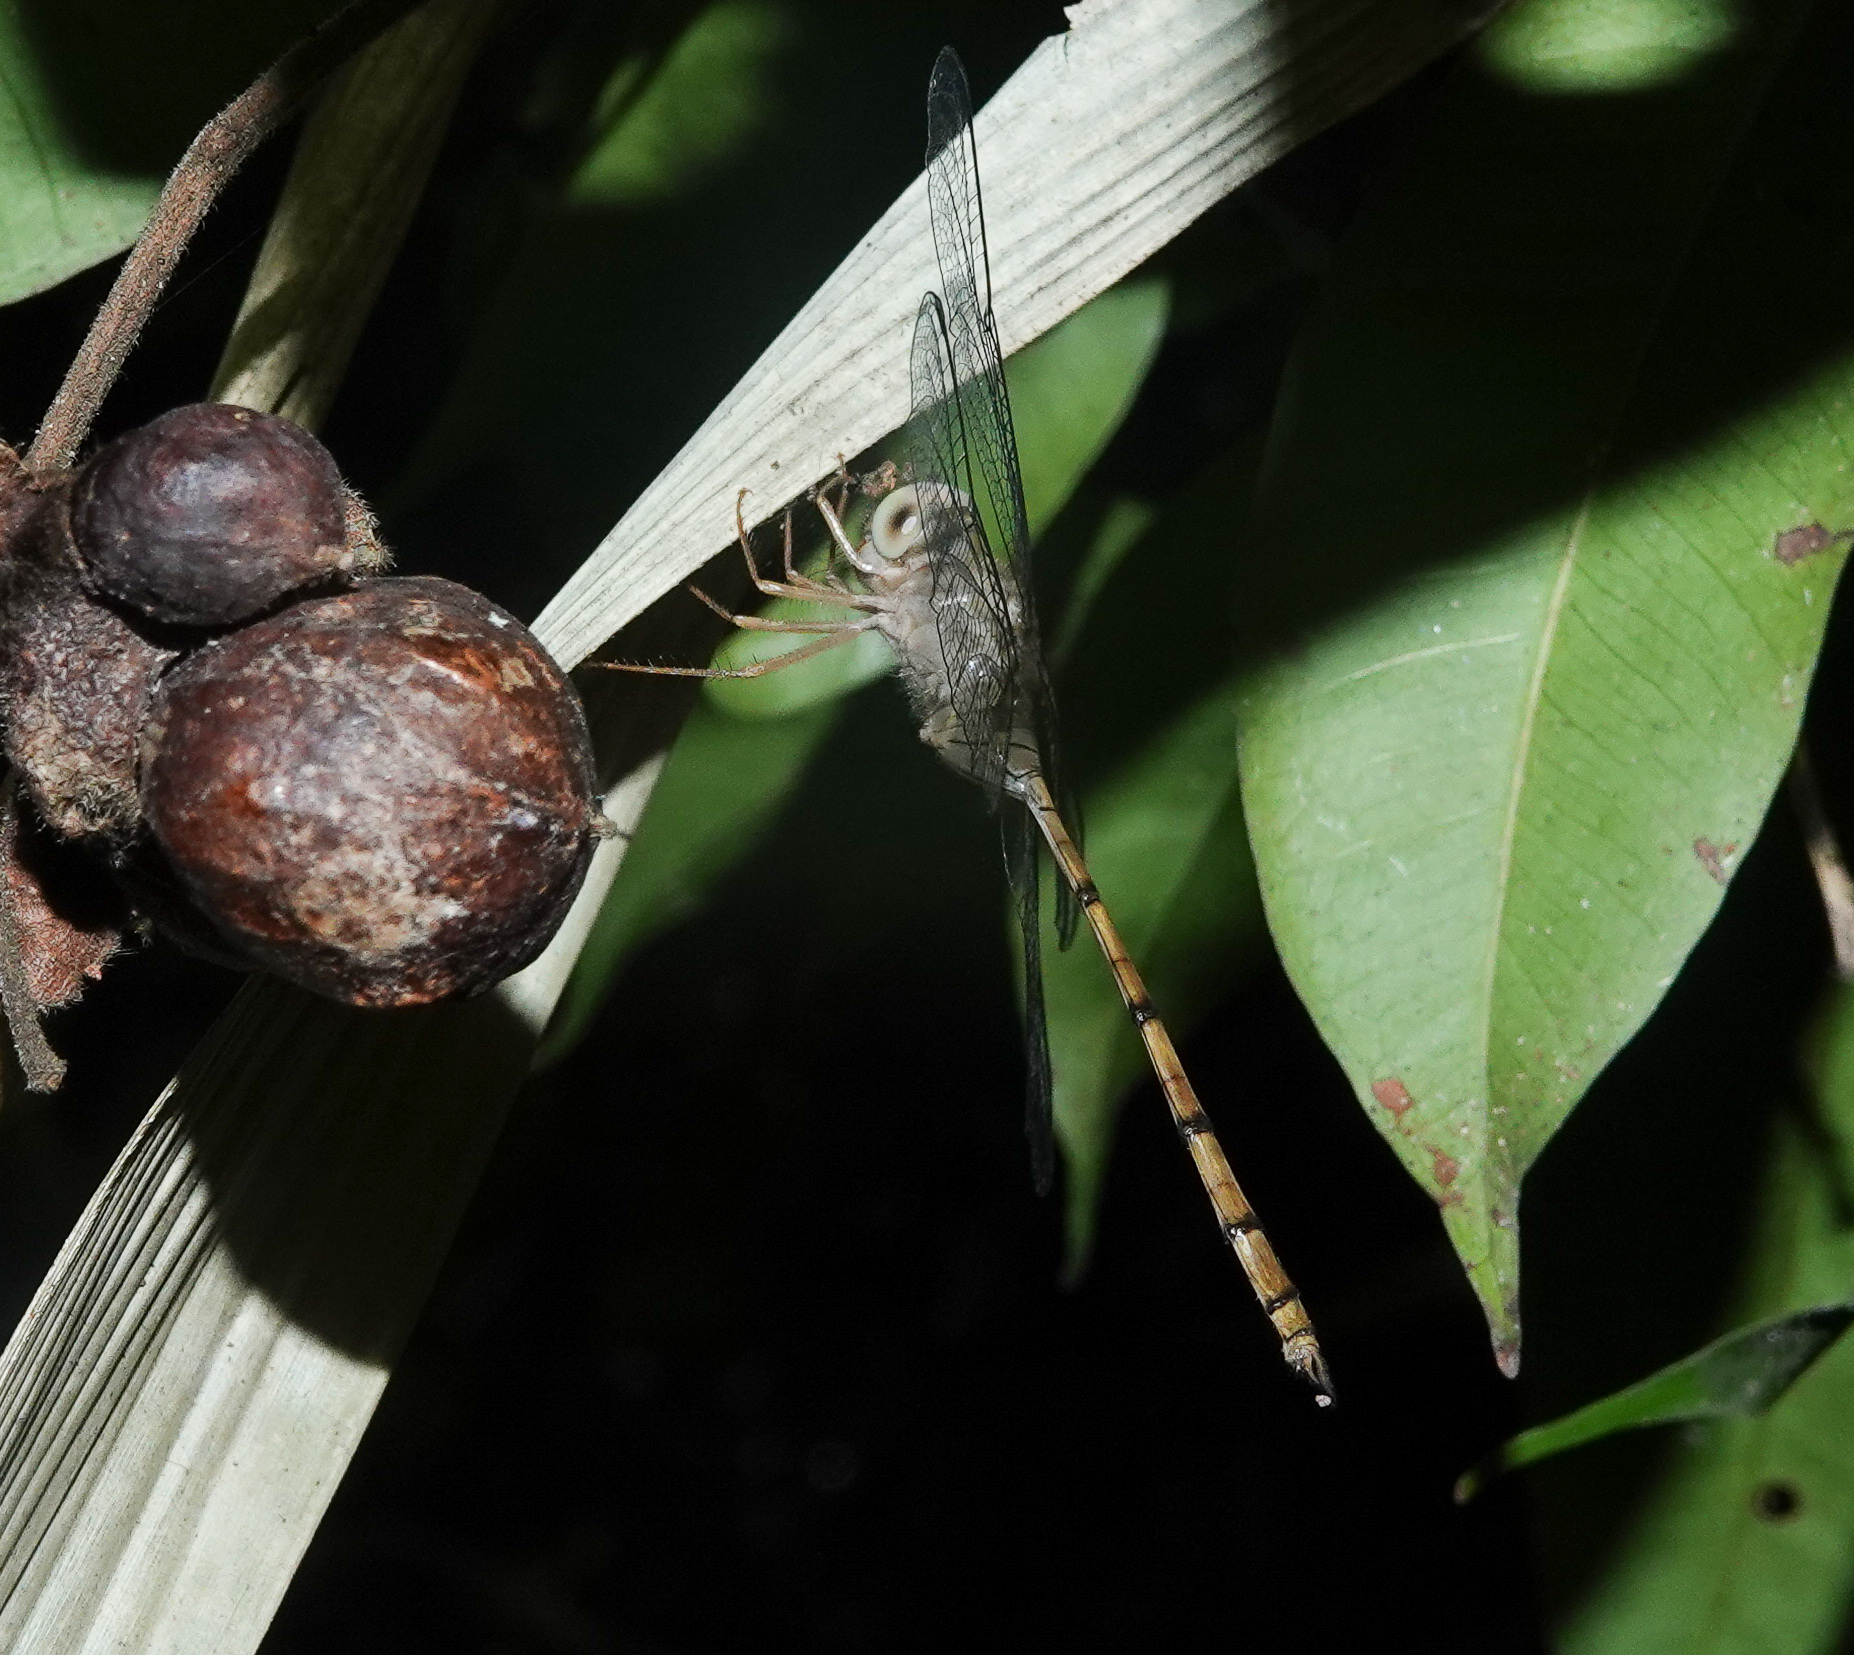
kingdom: Animalia
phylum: Arthropoda
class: Insecta
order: Odonata
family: Libellulidae
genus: Zyxomma
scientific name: Zyxomma petiolatum
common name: Dingy dusk-darter
